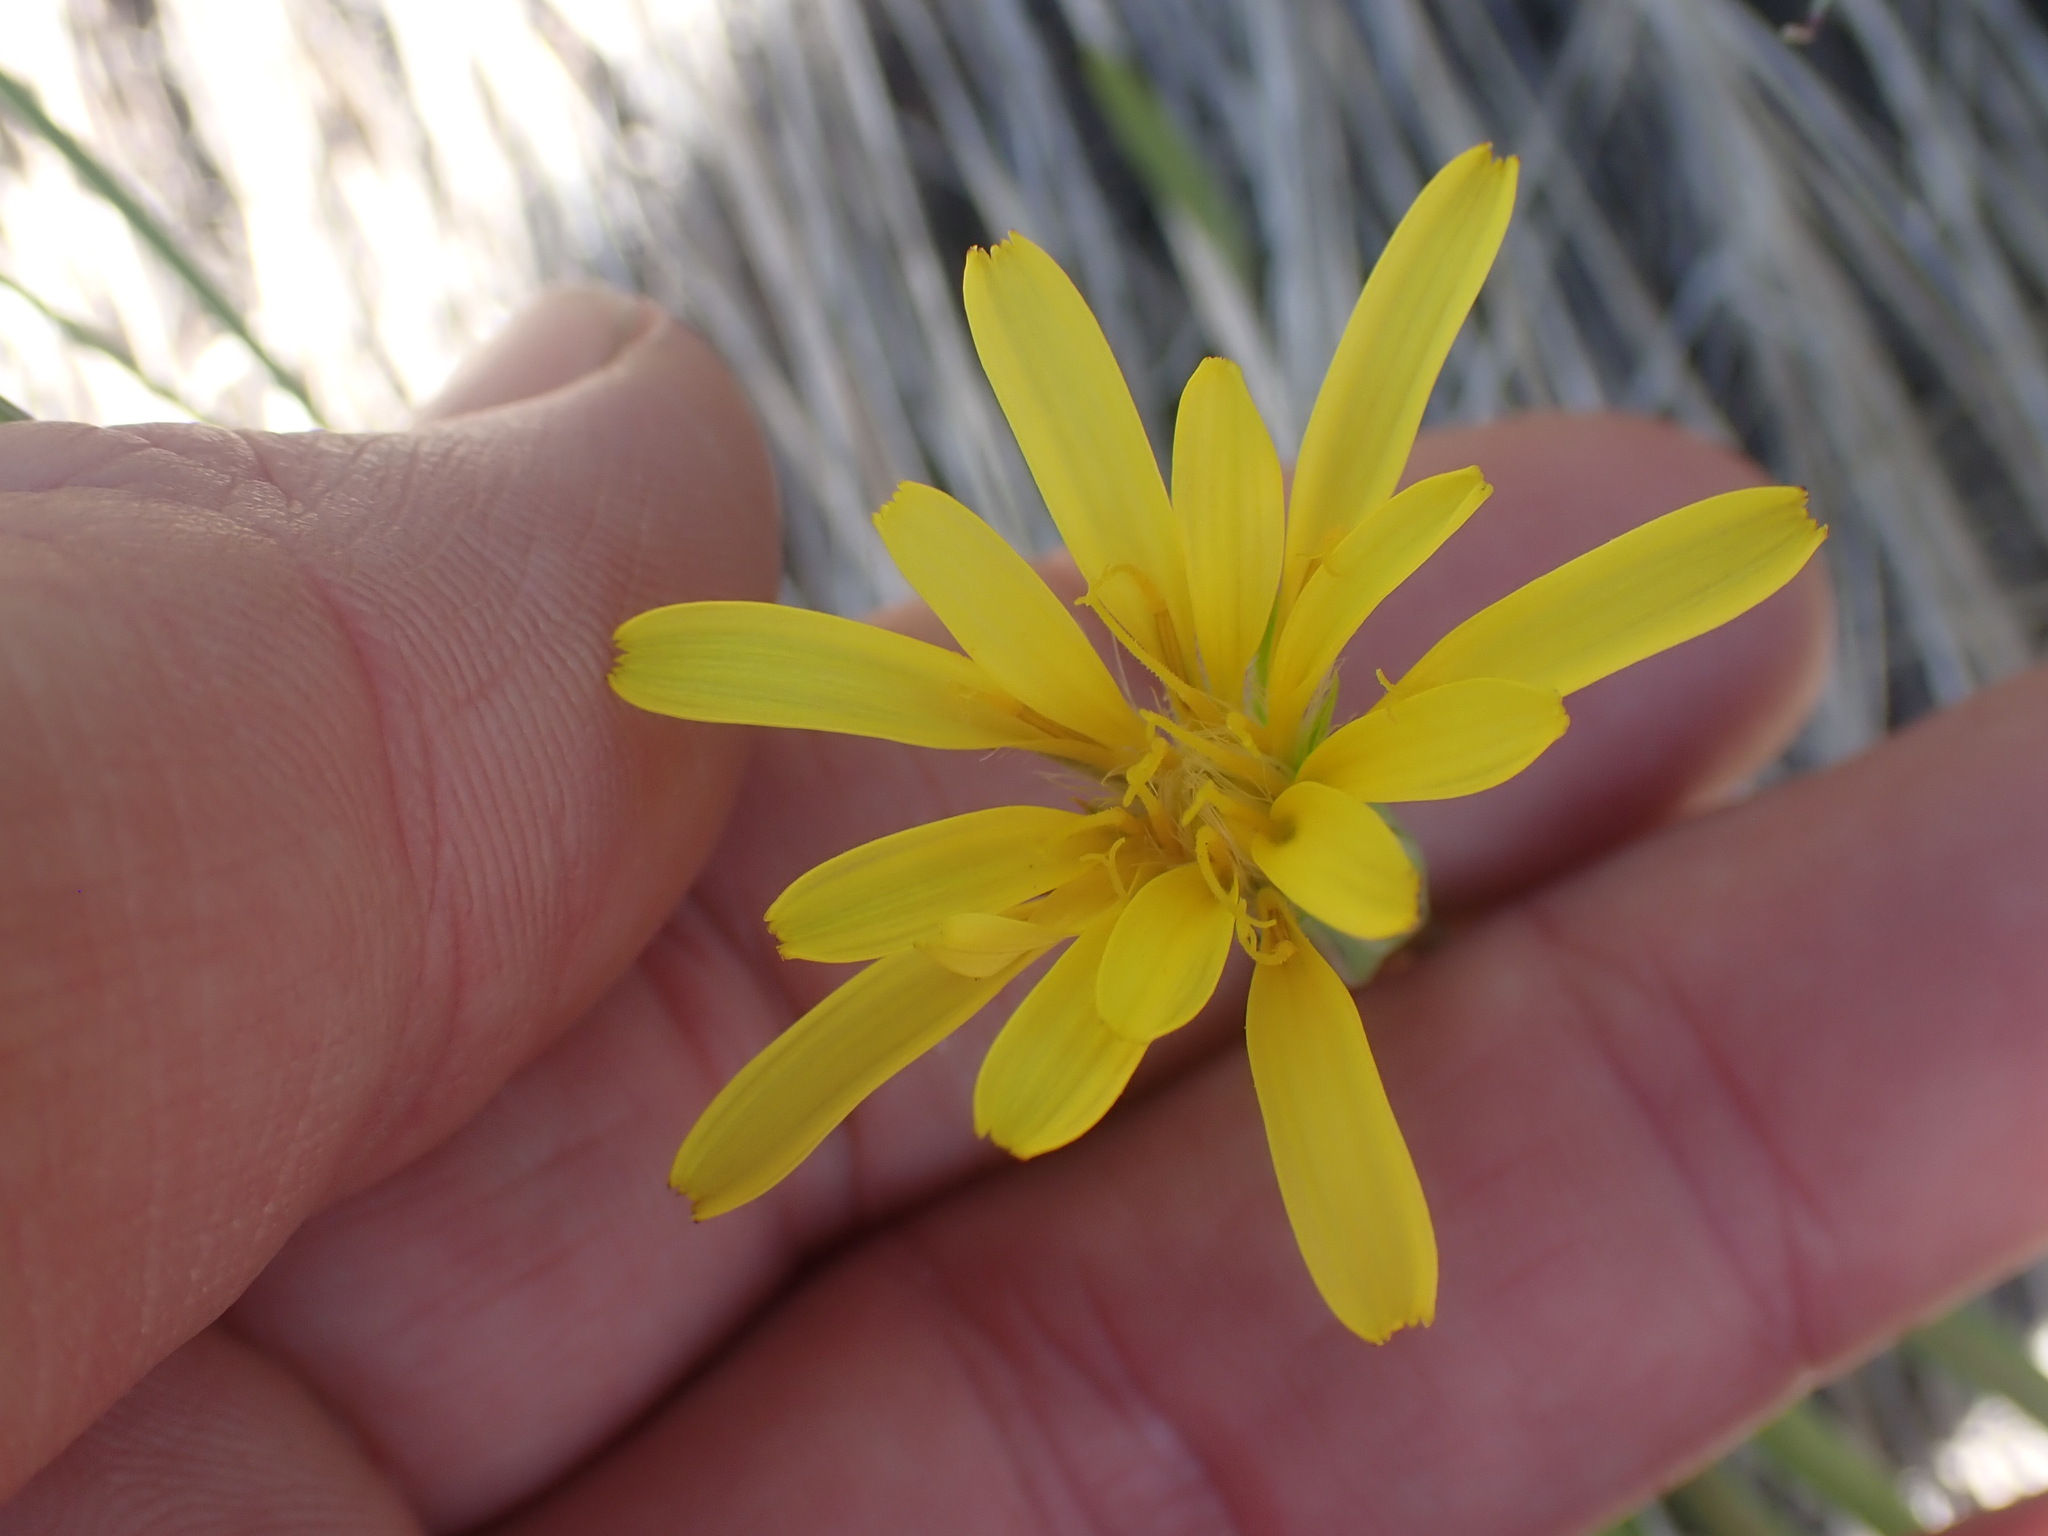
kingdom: Plantae
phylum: Tracheophyta
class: Magnoliopsida
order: Asterales
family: Asteraceae
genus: Microseris
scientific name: Microseris troximoides
